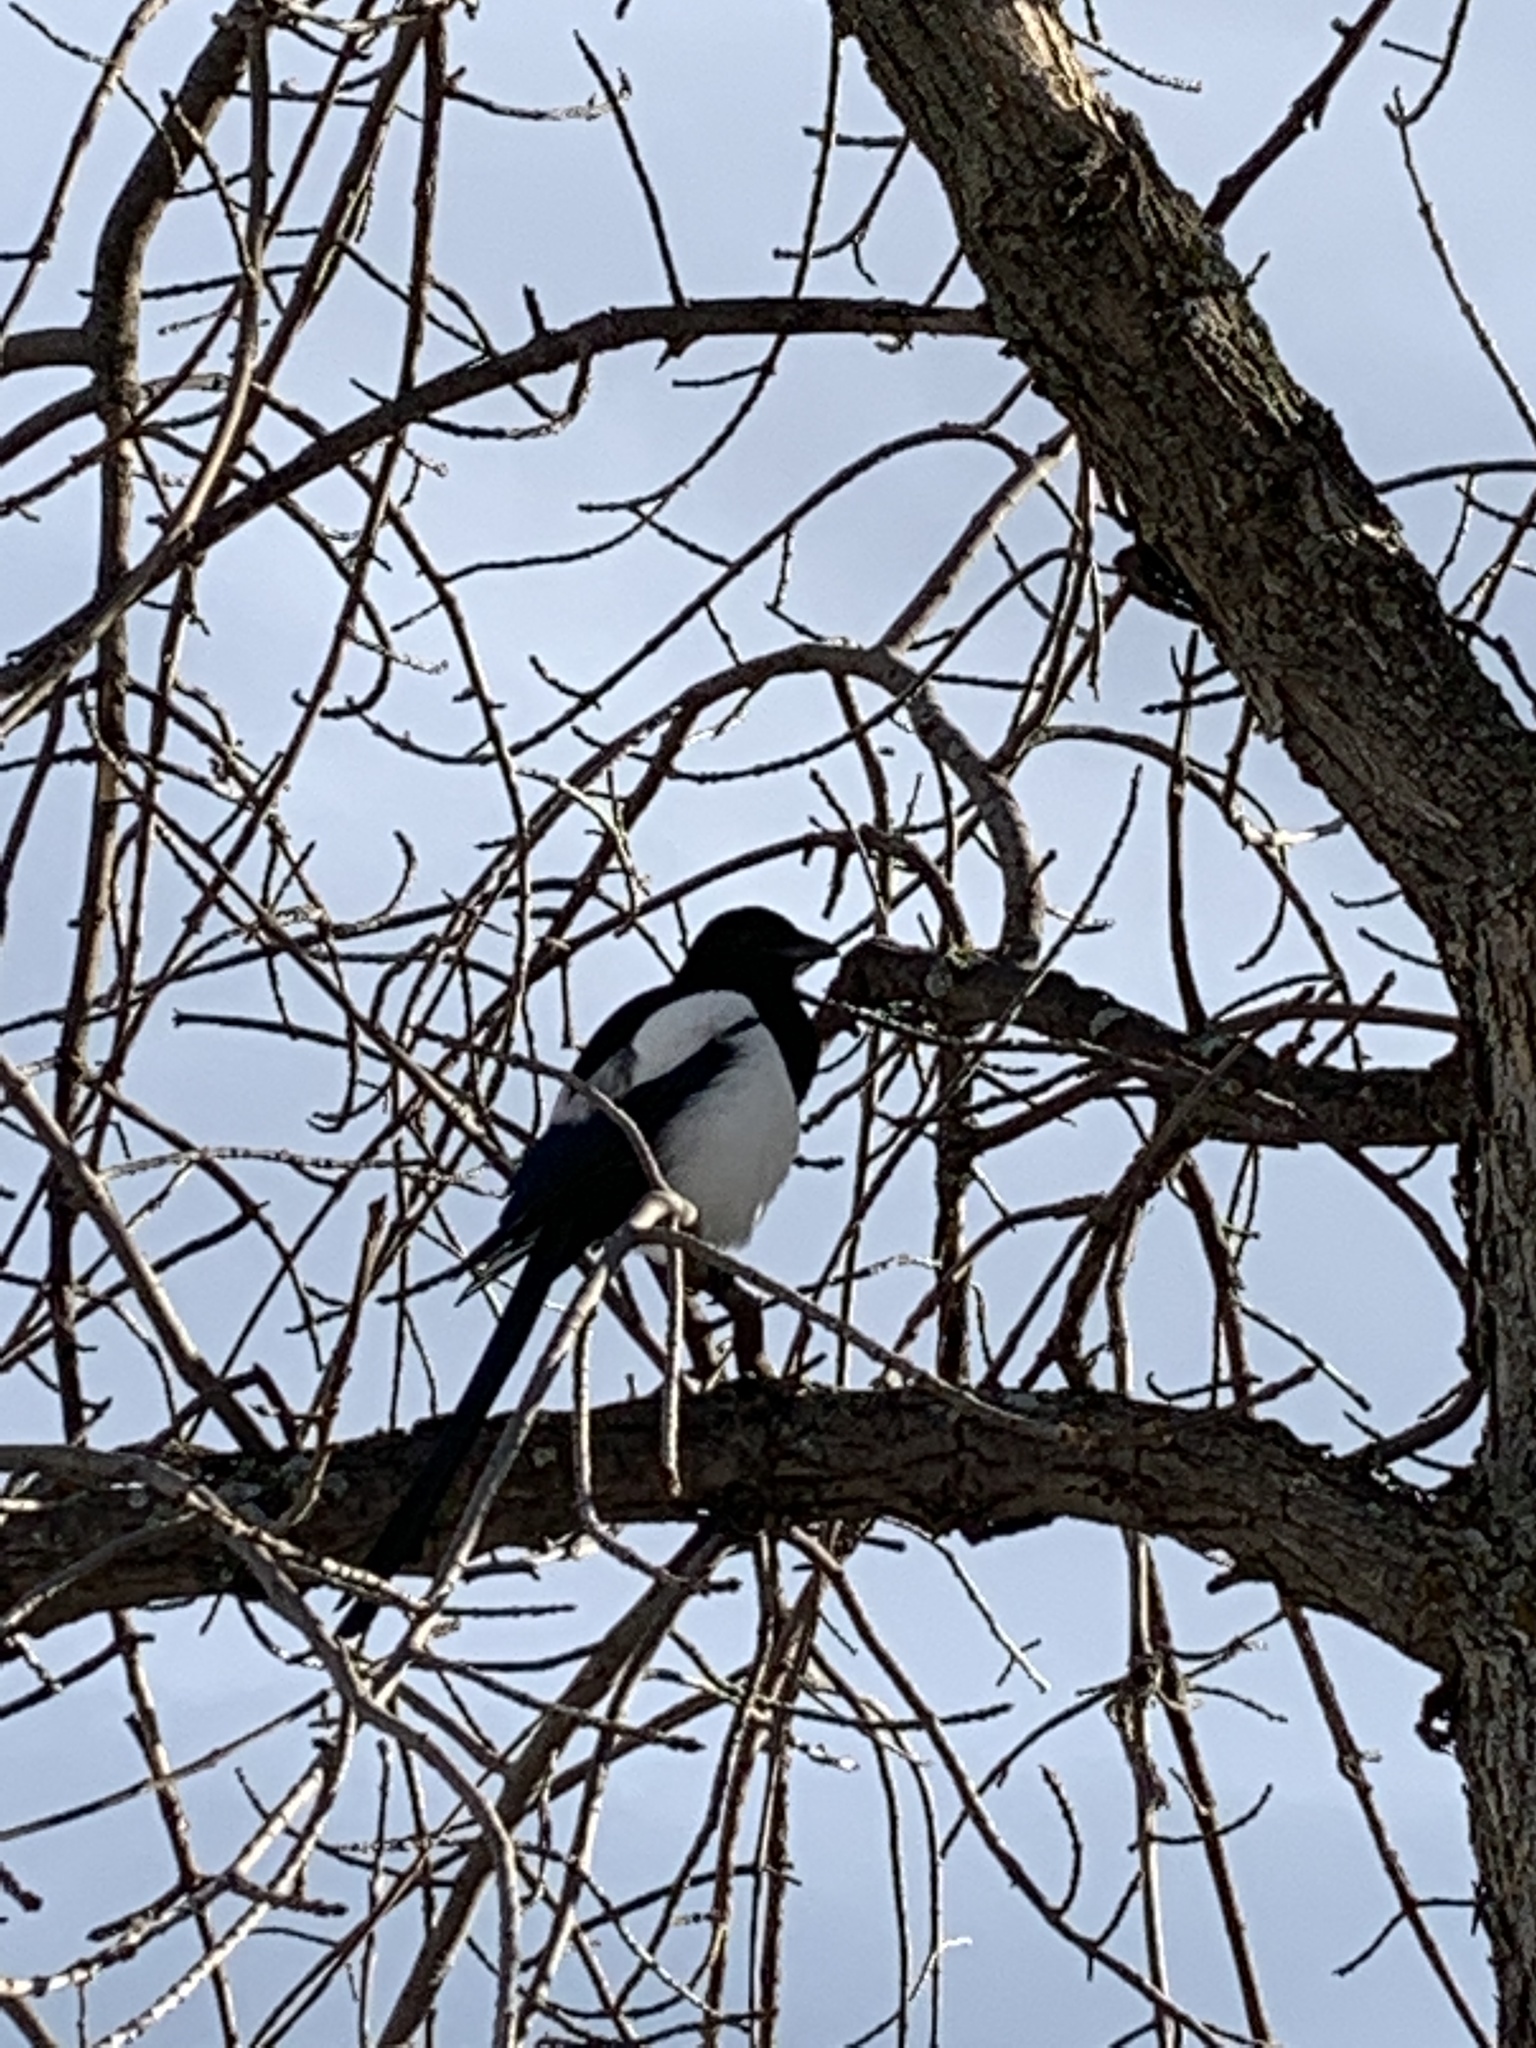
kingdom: Animalia
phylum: Chordata
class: Aves
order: Passeriformes
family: Corvidae
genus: Pica
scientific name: Pica hudsonia
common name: Black-billed magpie
